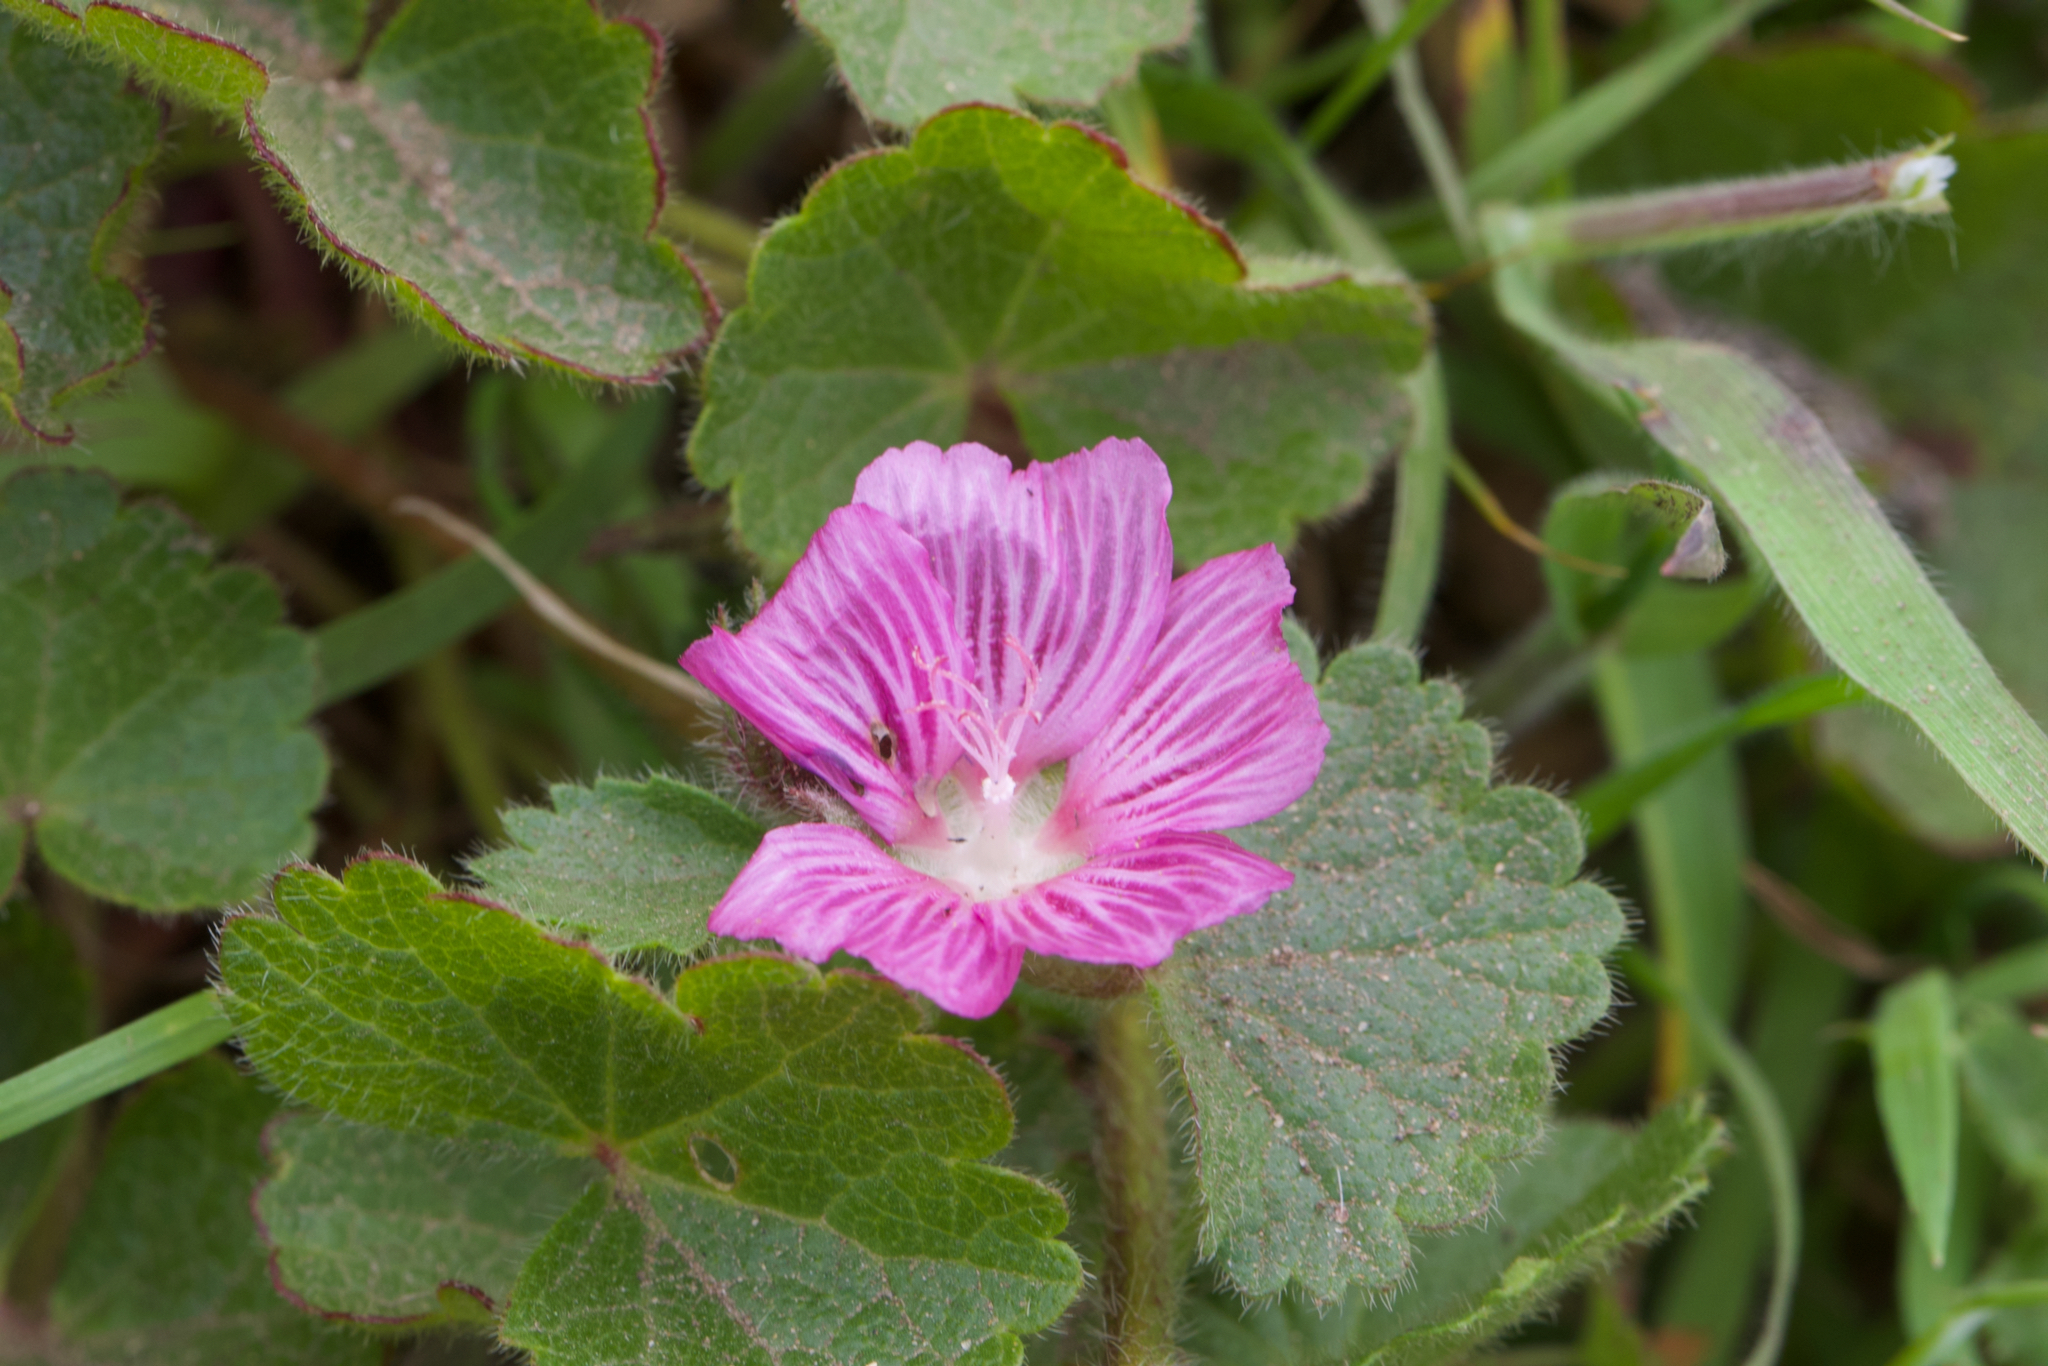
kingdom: Plantae
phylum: Tracheophyta
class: Magnoliopsida
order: Malvales
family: Malvaceae
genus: Sidalcea
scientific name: Sidalcea malviflora
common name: Greek mallow
